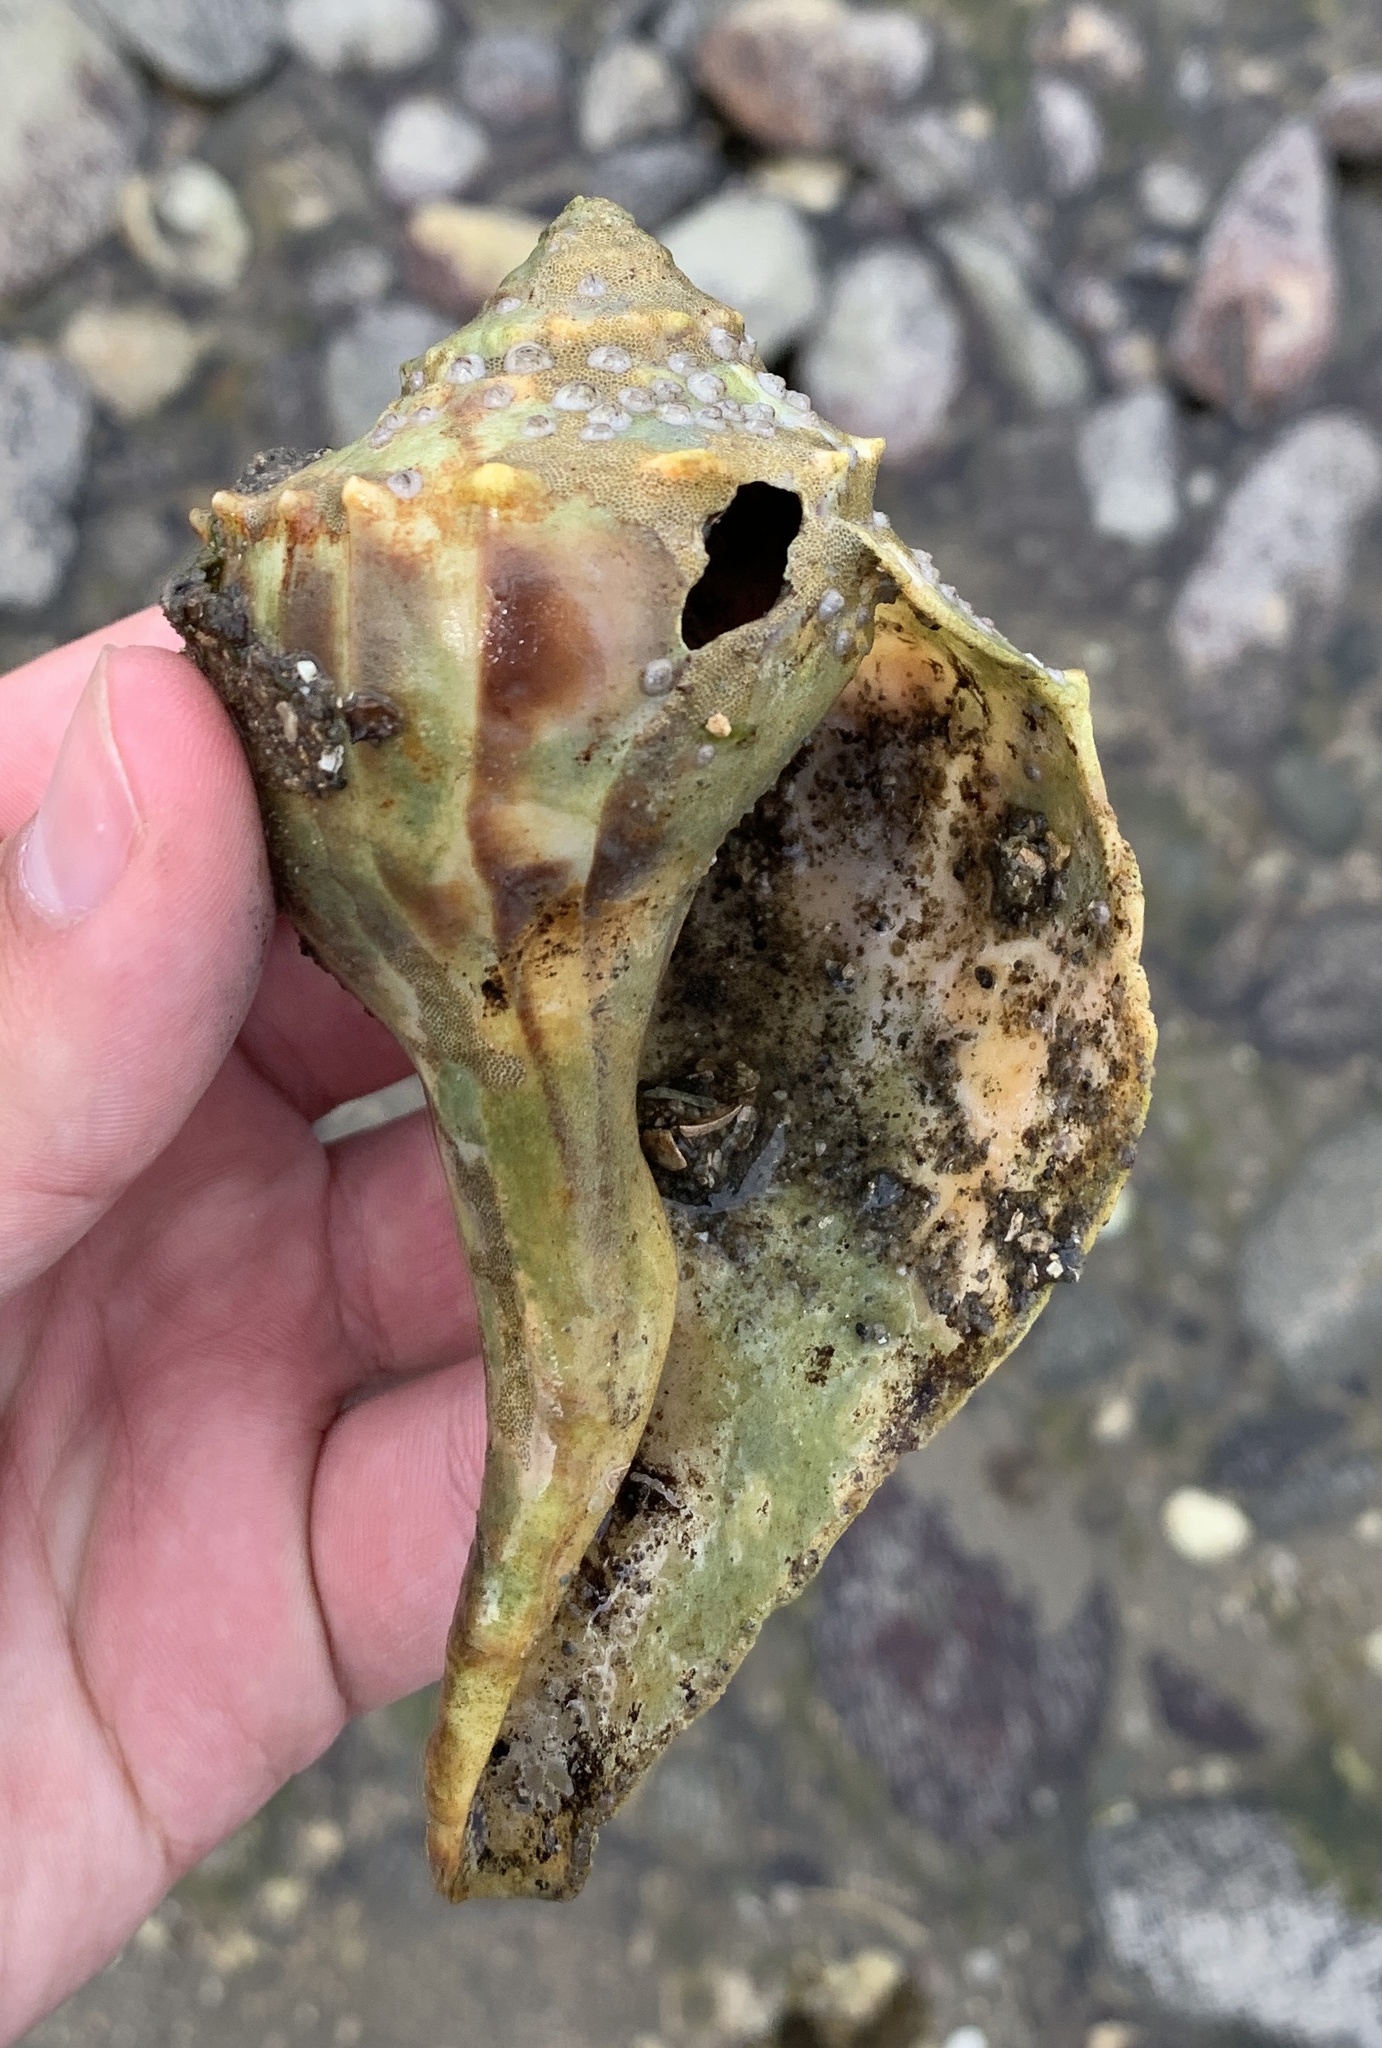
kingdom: Animalia
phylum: Mollusca
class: Gastropoda
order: Neogastropoda
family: Busyconidae
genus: Busycon
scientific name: Busycon carica
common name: Knobbed whelk
